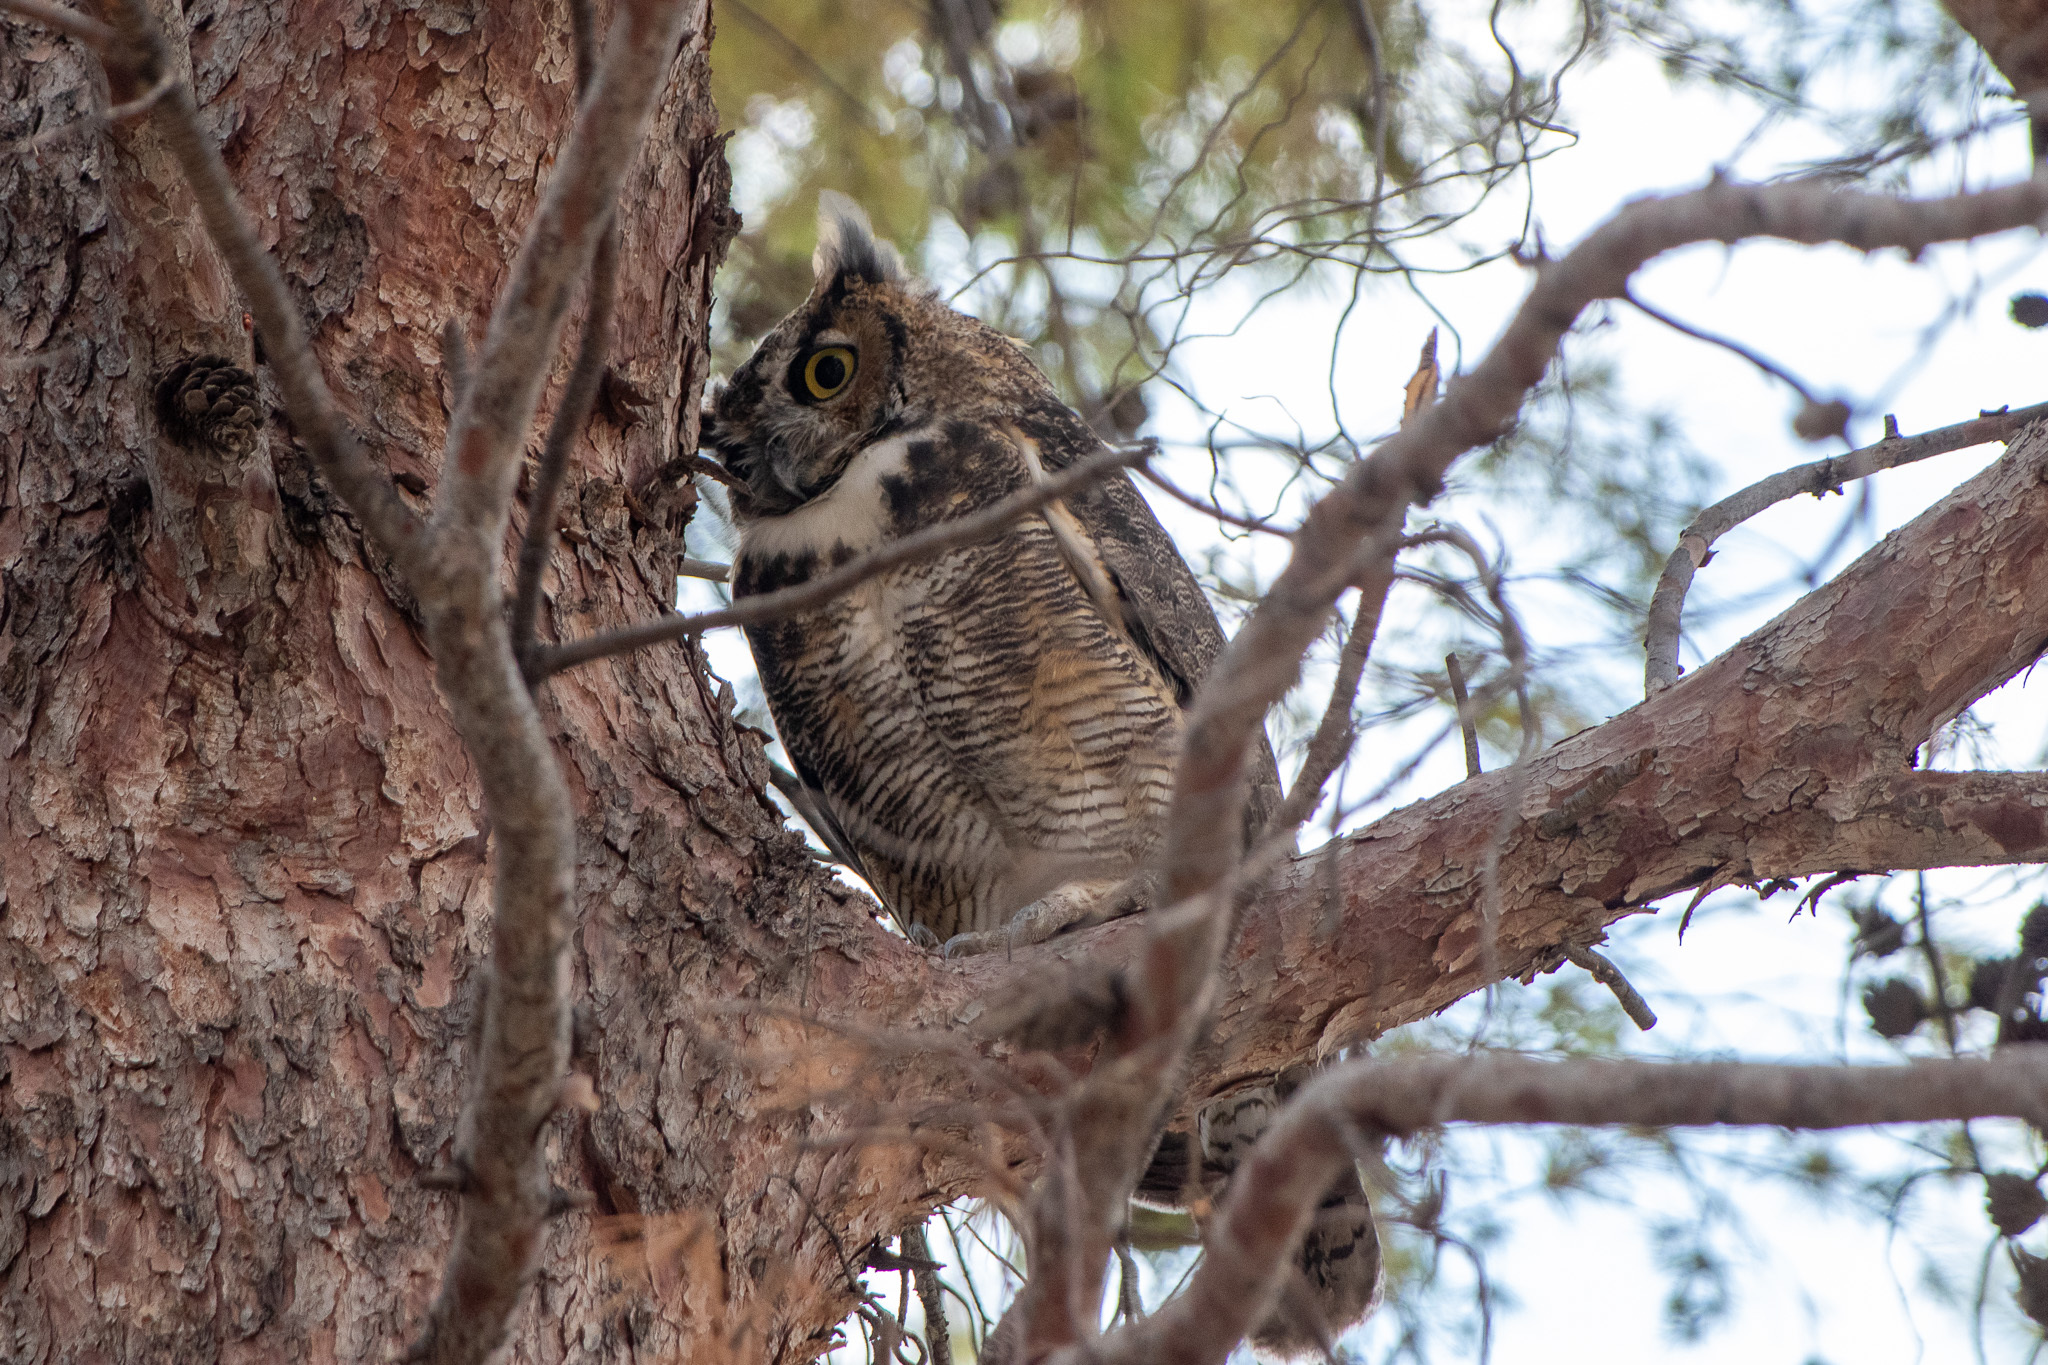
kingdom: Animalia
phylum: Chordata
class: Aves
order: Strigiformes
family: Strigidae
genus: Bubo
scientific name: Bubo virginianus
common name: Great horned owl
